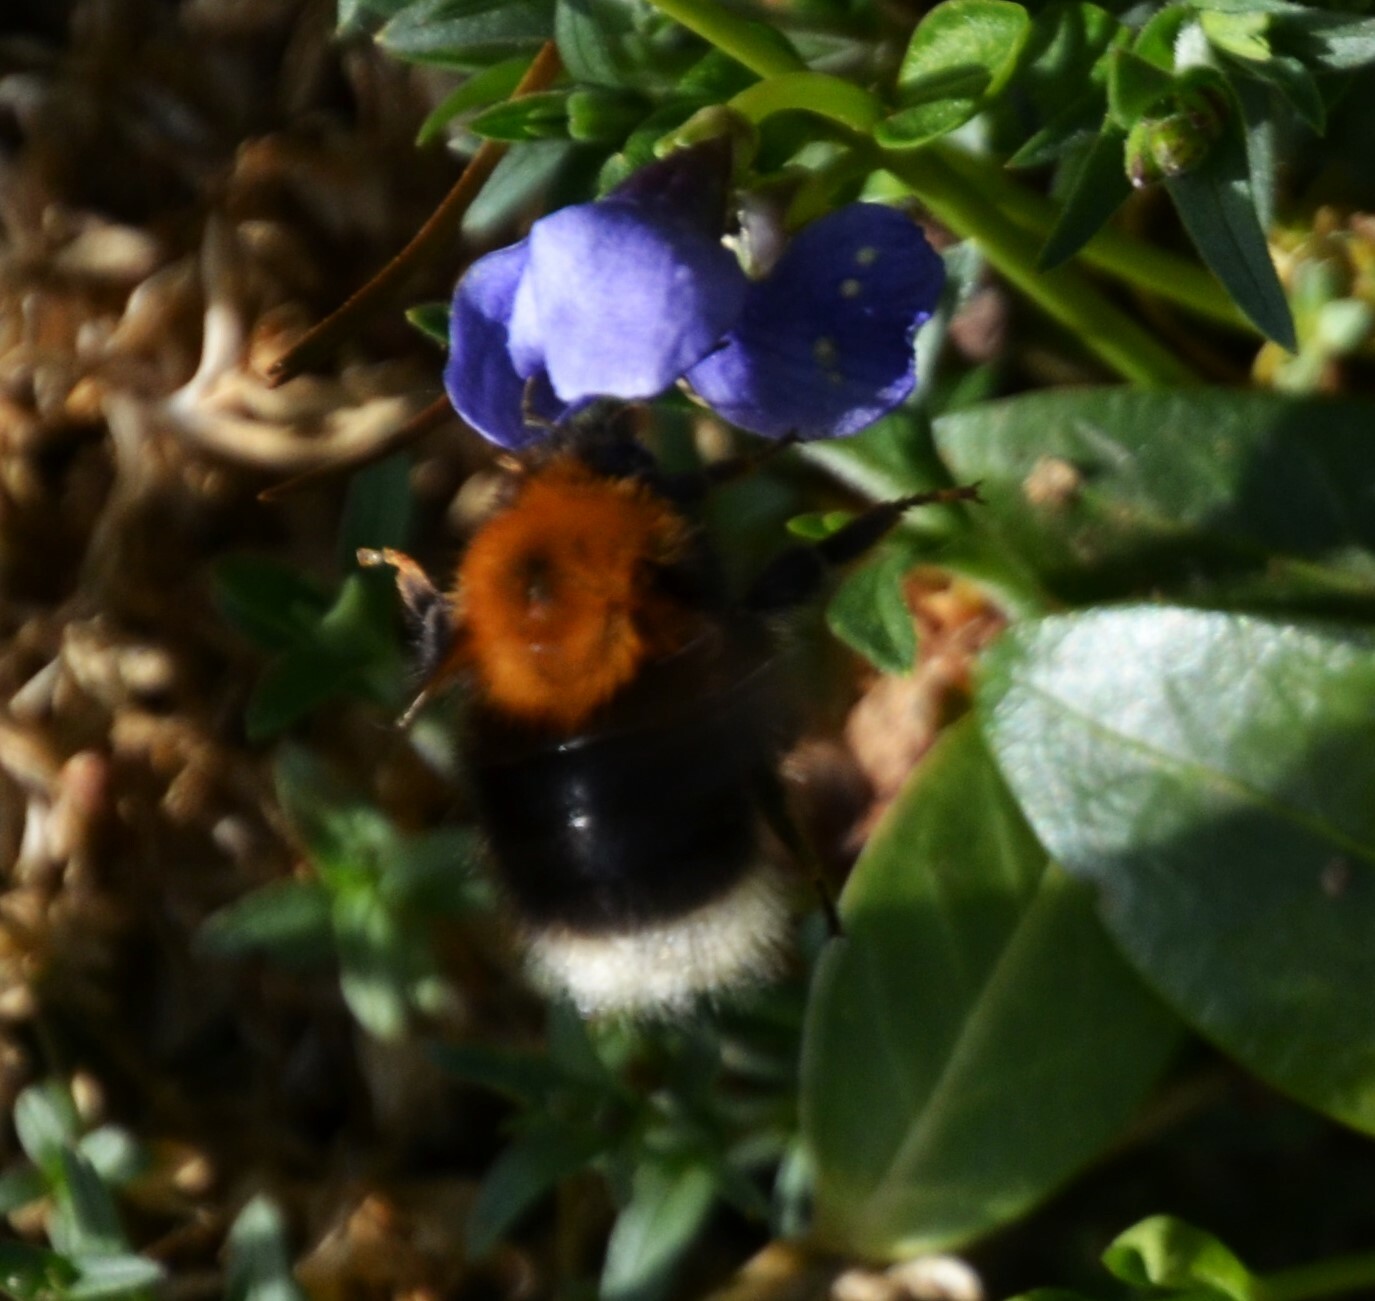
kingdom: Animalia
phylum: Arthropoda
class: Insecta
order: Hymenoptera
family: Apidae
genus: Bombus
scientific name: Bombus hypnorum
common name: New garden bumblebee
